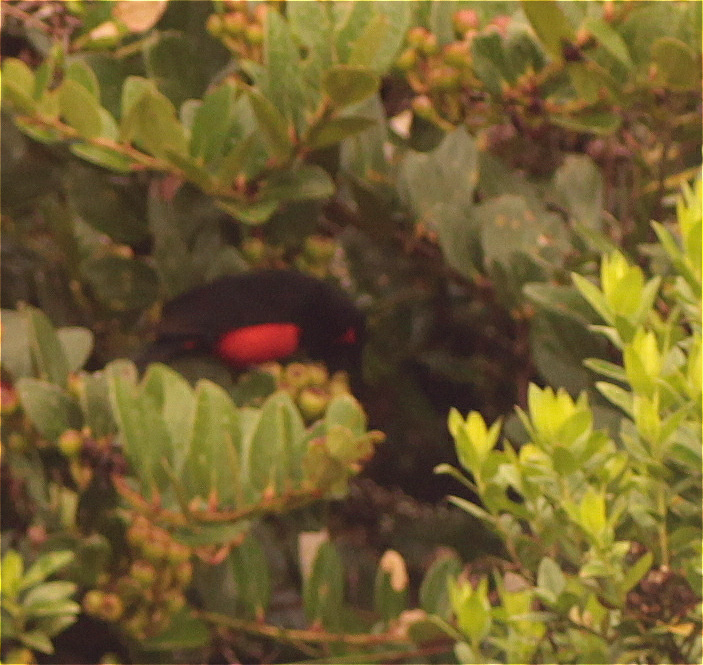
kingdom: Animalia
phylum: Chordata
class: Aves
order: Passeriformes
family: Thraupidae
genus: Anisognathus
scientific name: Anisognathus igniventris
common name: Scarlet-bellied mountain tanager
